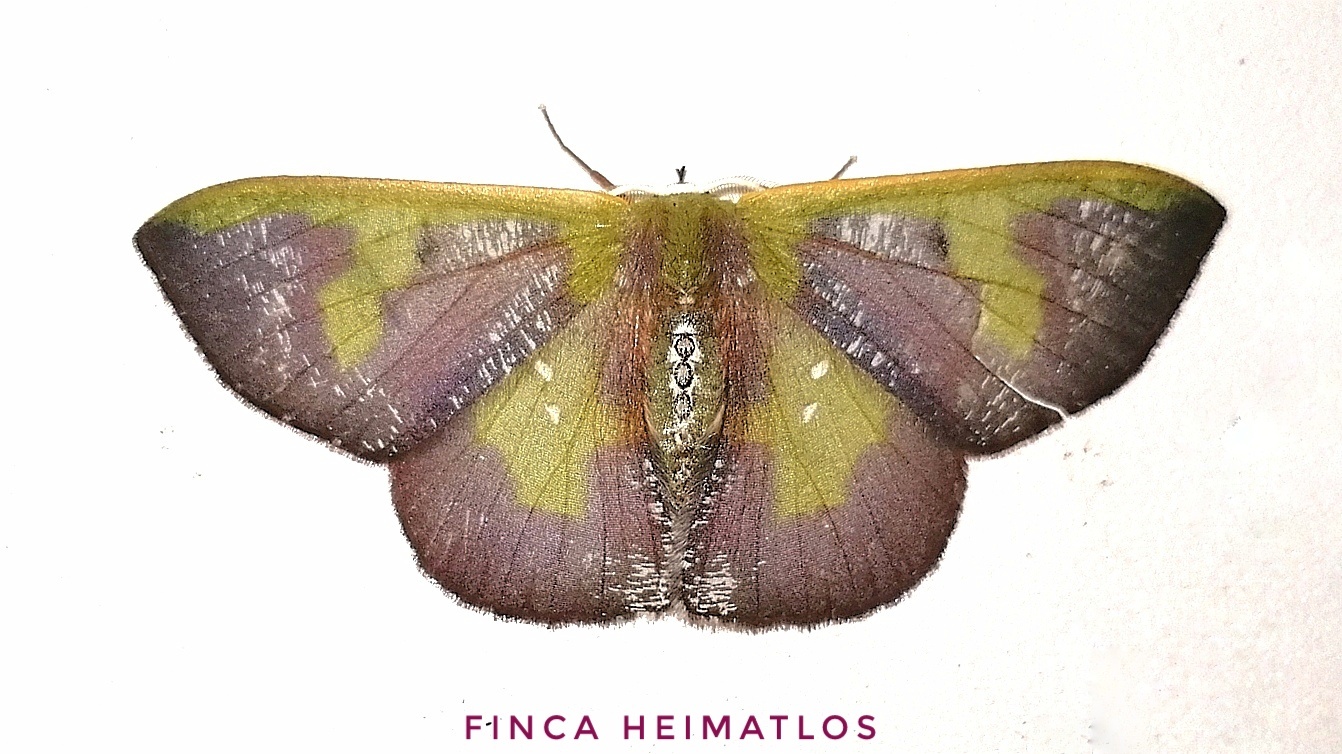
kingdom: Animalia
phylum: Arthropoda
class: Insecta
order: Lepidoptera
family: Geometridae
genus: Oospila
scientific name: Oospila lilacina
